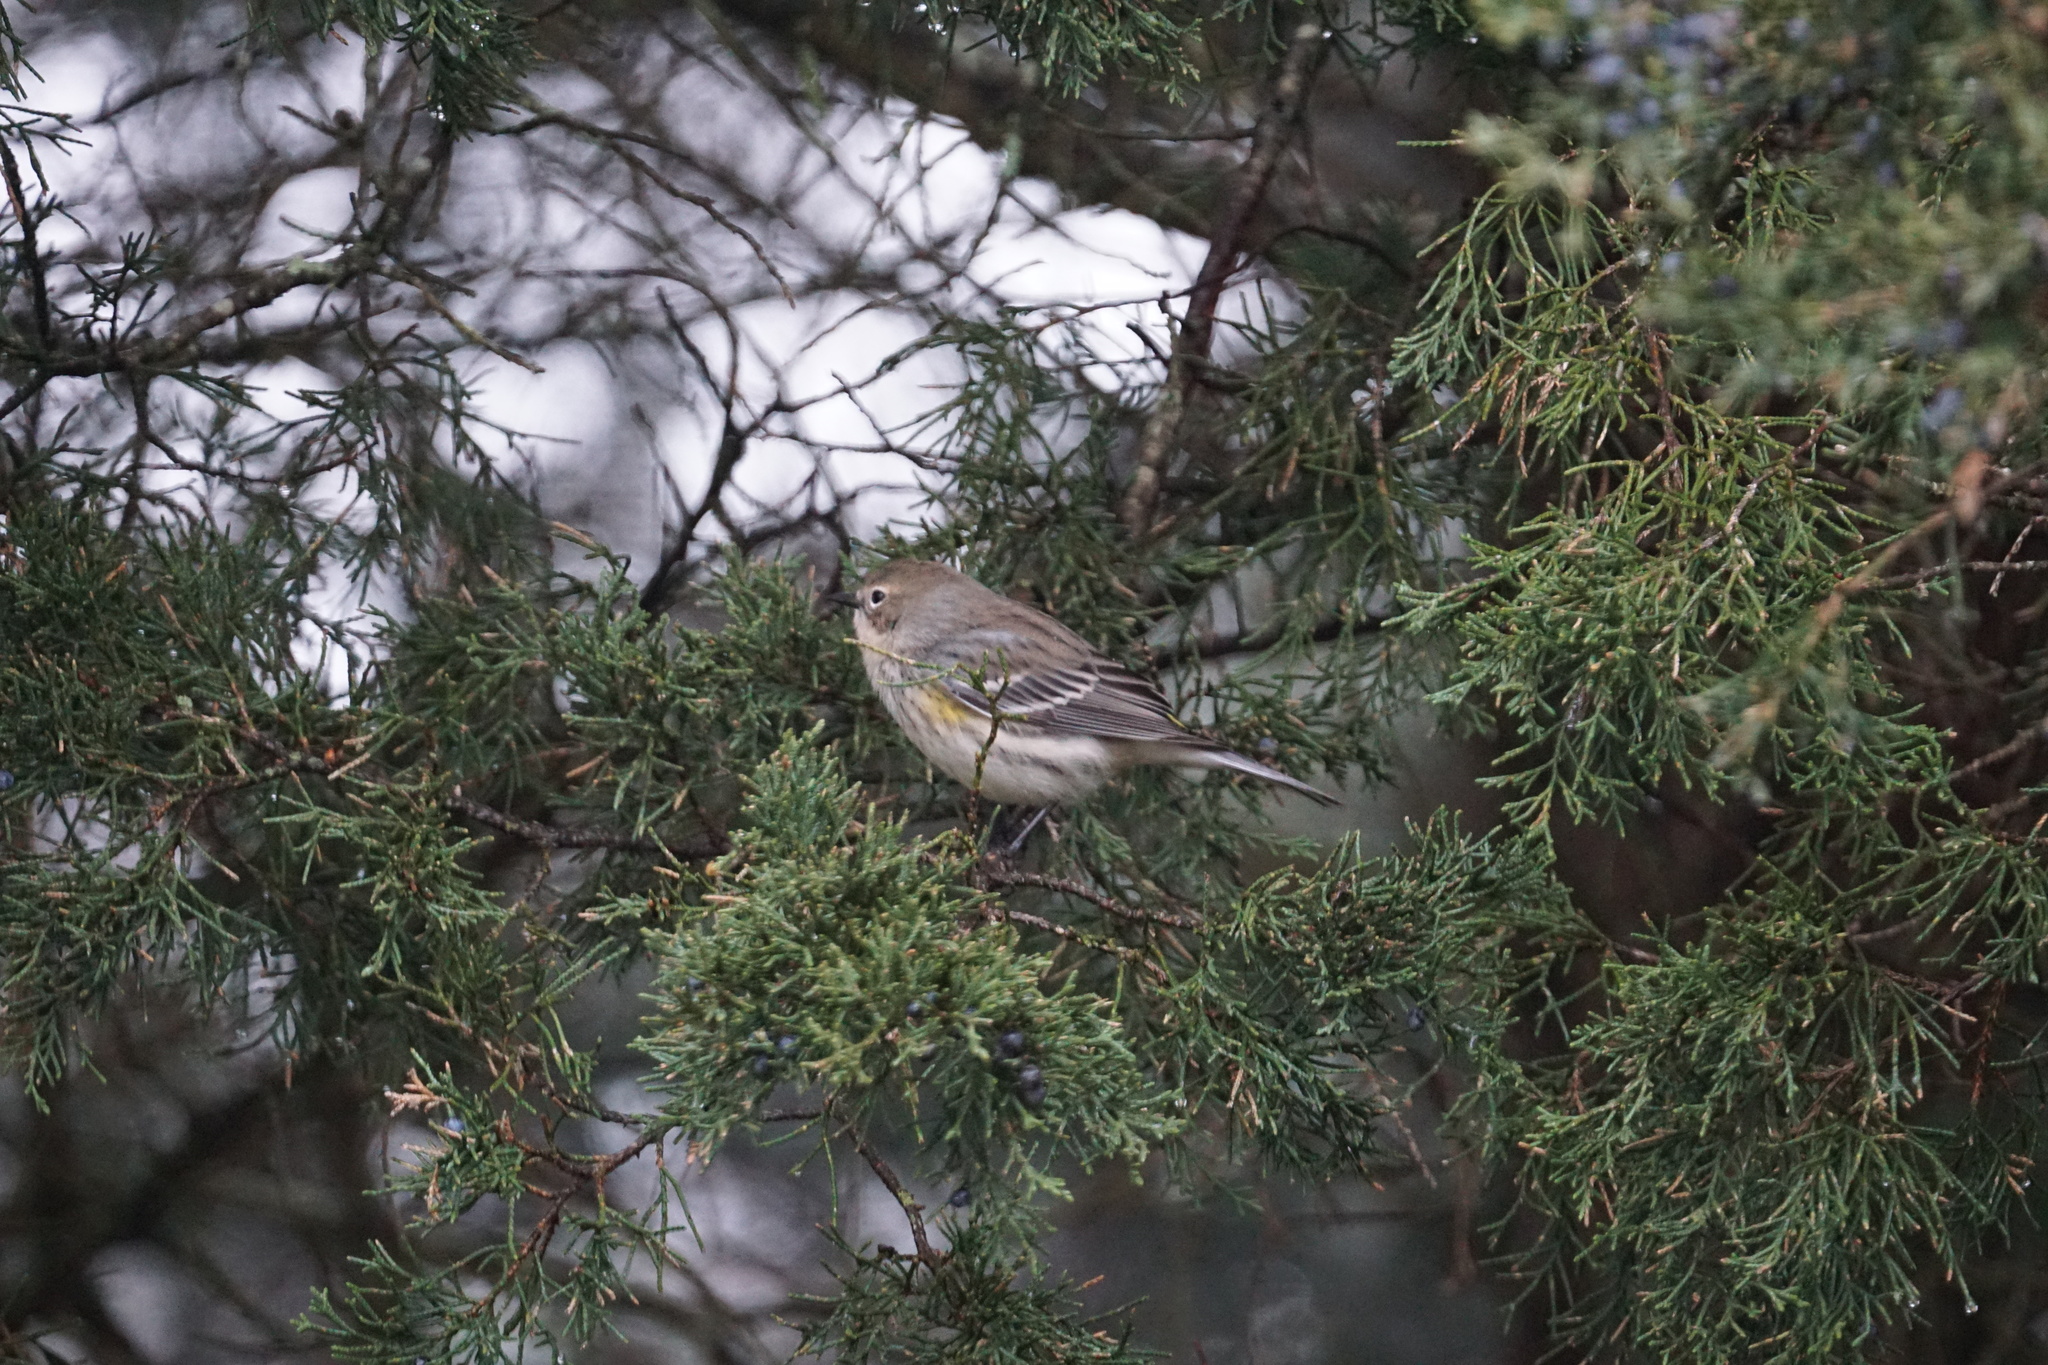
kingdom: Animalia
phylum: Chordata
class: Aves
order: Passeriformes
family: Parulidae
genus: Setophaga
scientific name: Setophaga coronata
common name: Myrtle warbler
